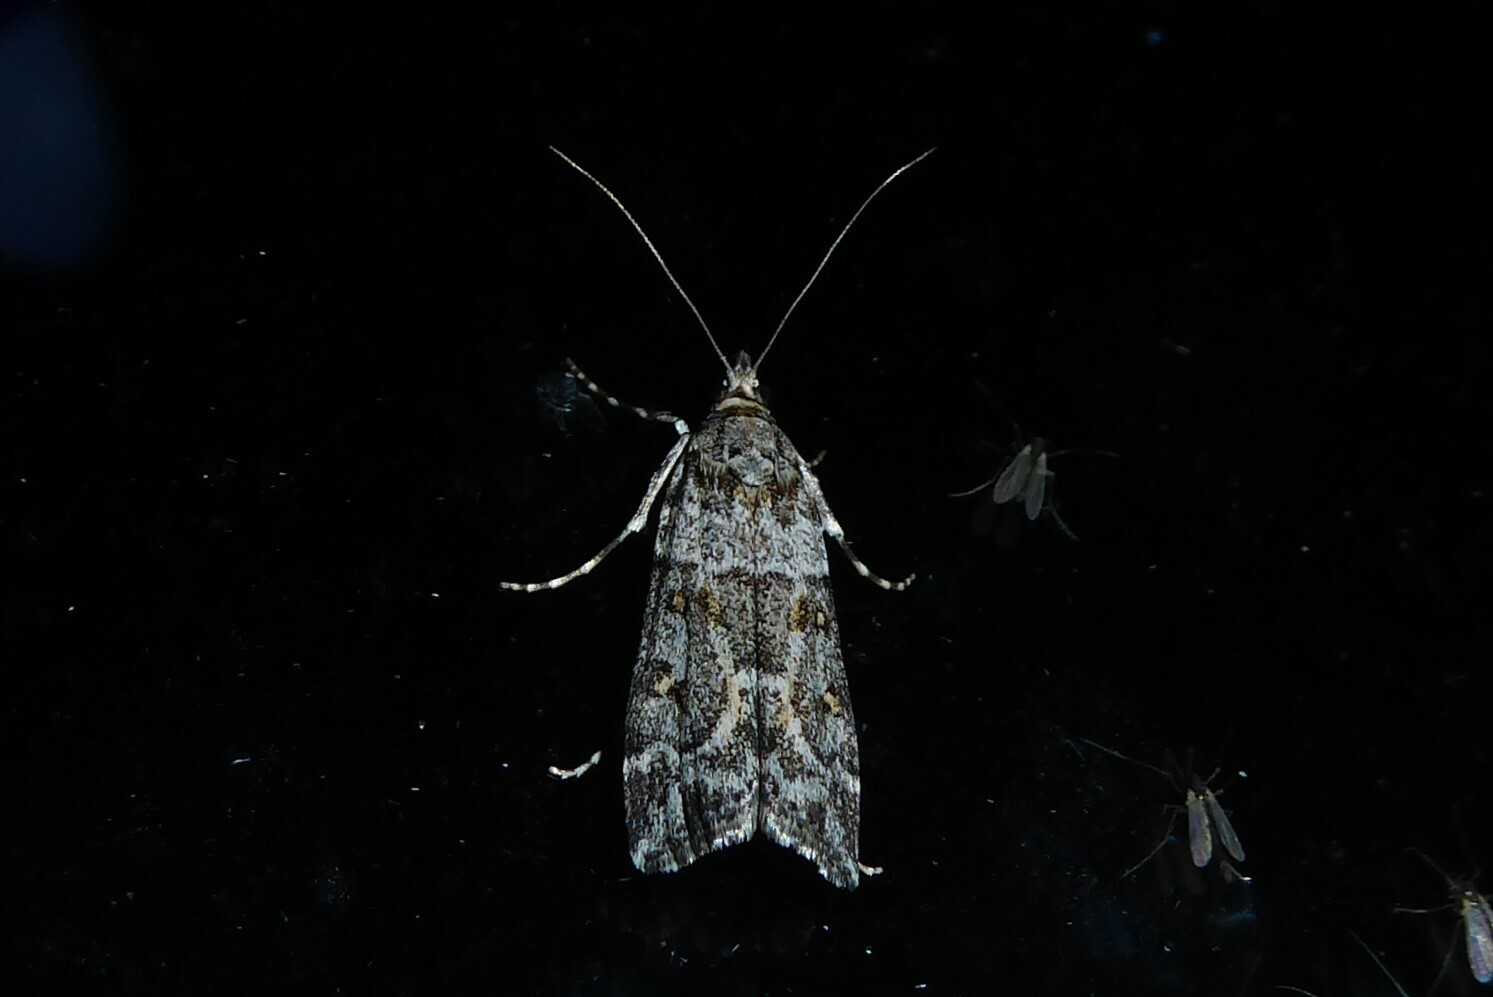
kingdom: Animalia
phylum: Arthropoda
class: Insecta
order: Lepidoptera
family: Crambidae
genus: Scoparia
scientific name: Scoparia tetracycla
